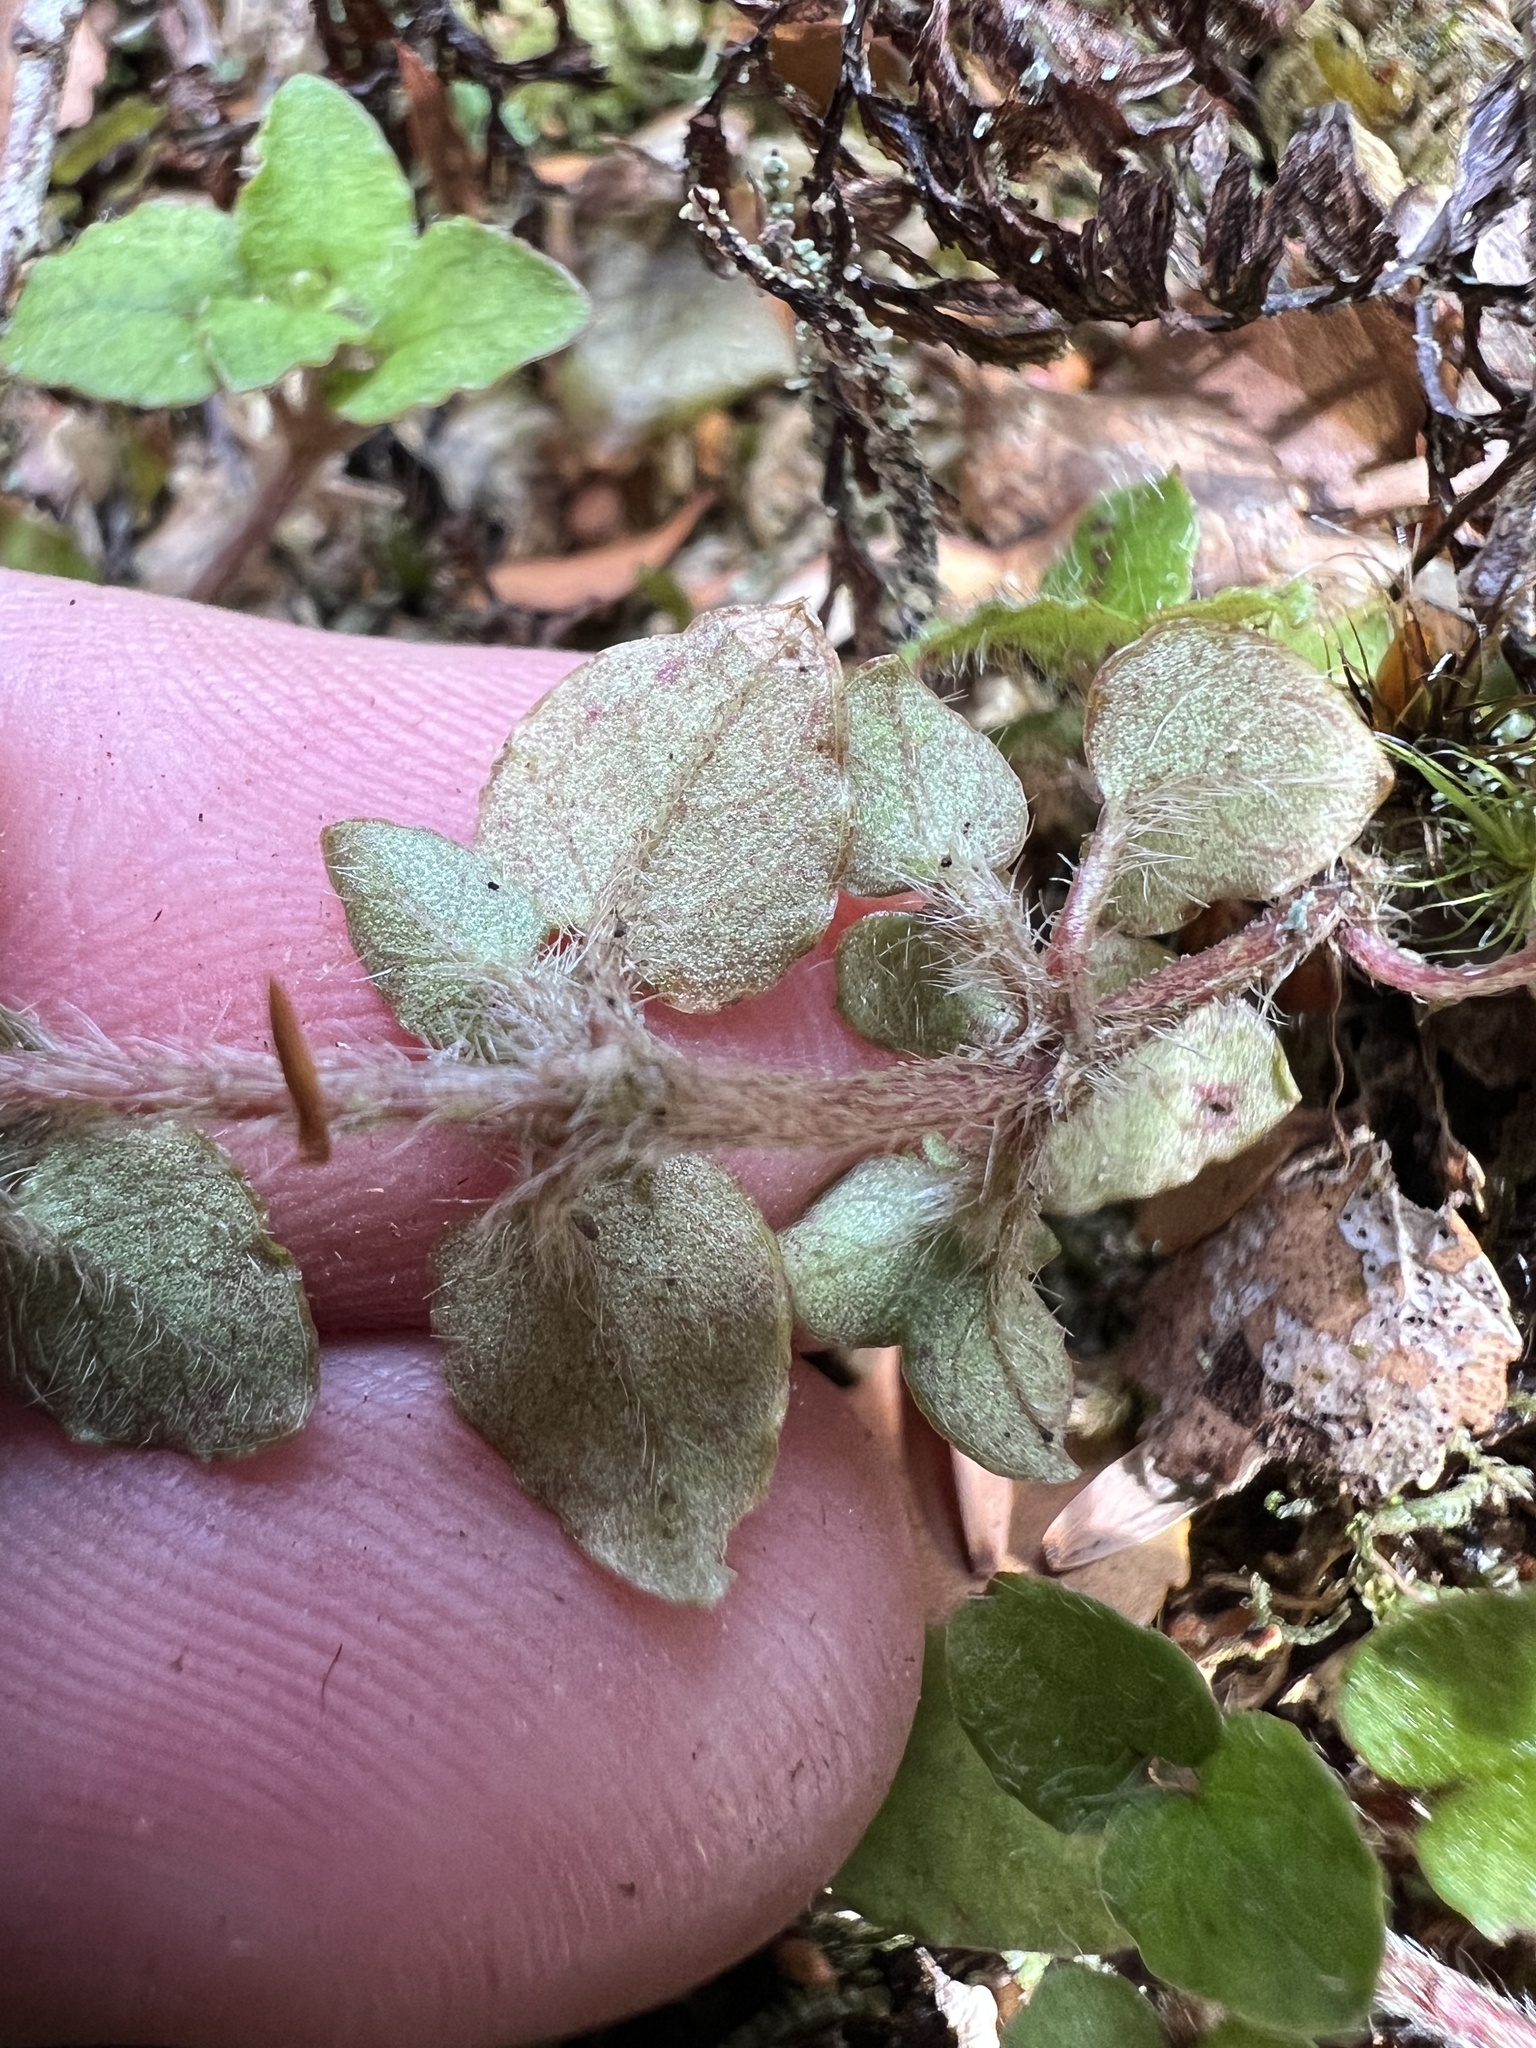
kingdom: Plantae
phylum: Tracheophyta
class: Magnoliopsida
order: Gentianales
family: Rubiaceae
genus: Nertera
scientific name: Nertera dichondrifolia
